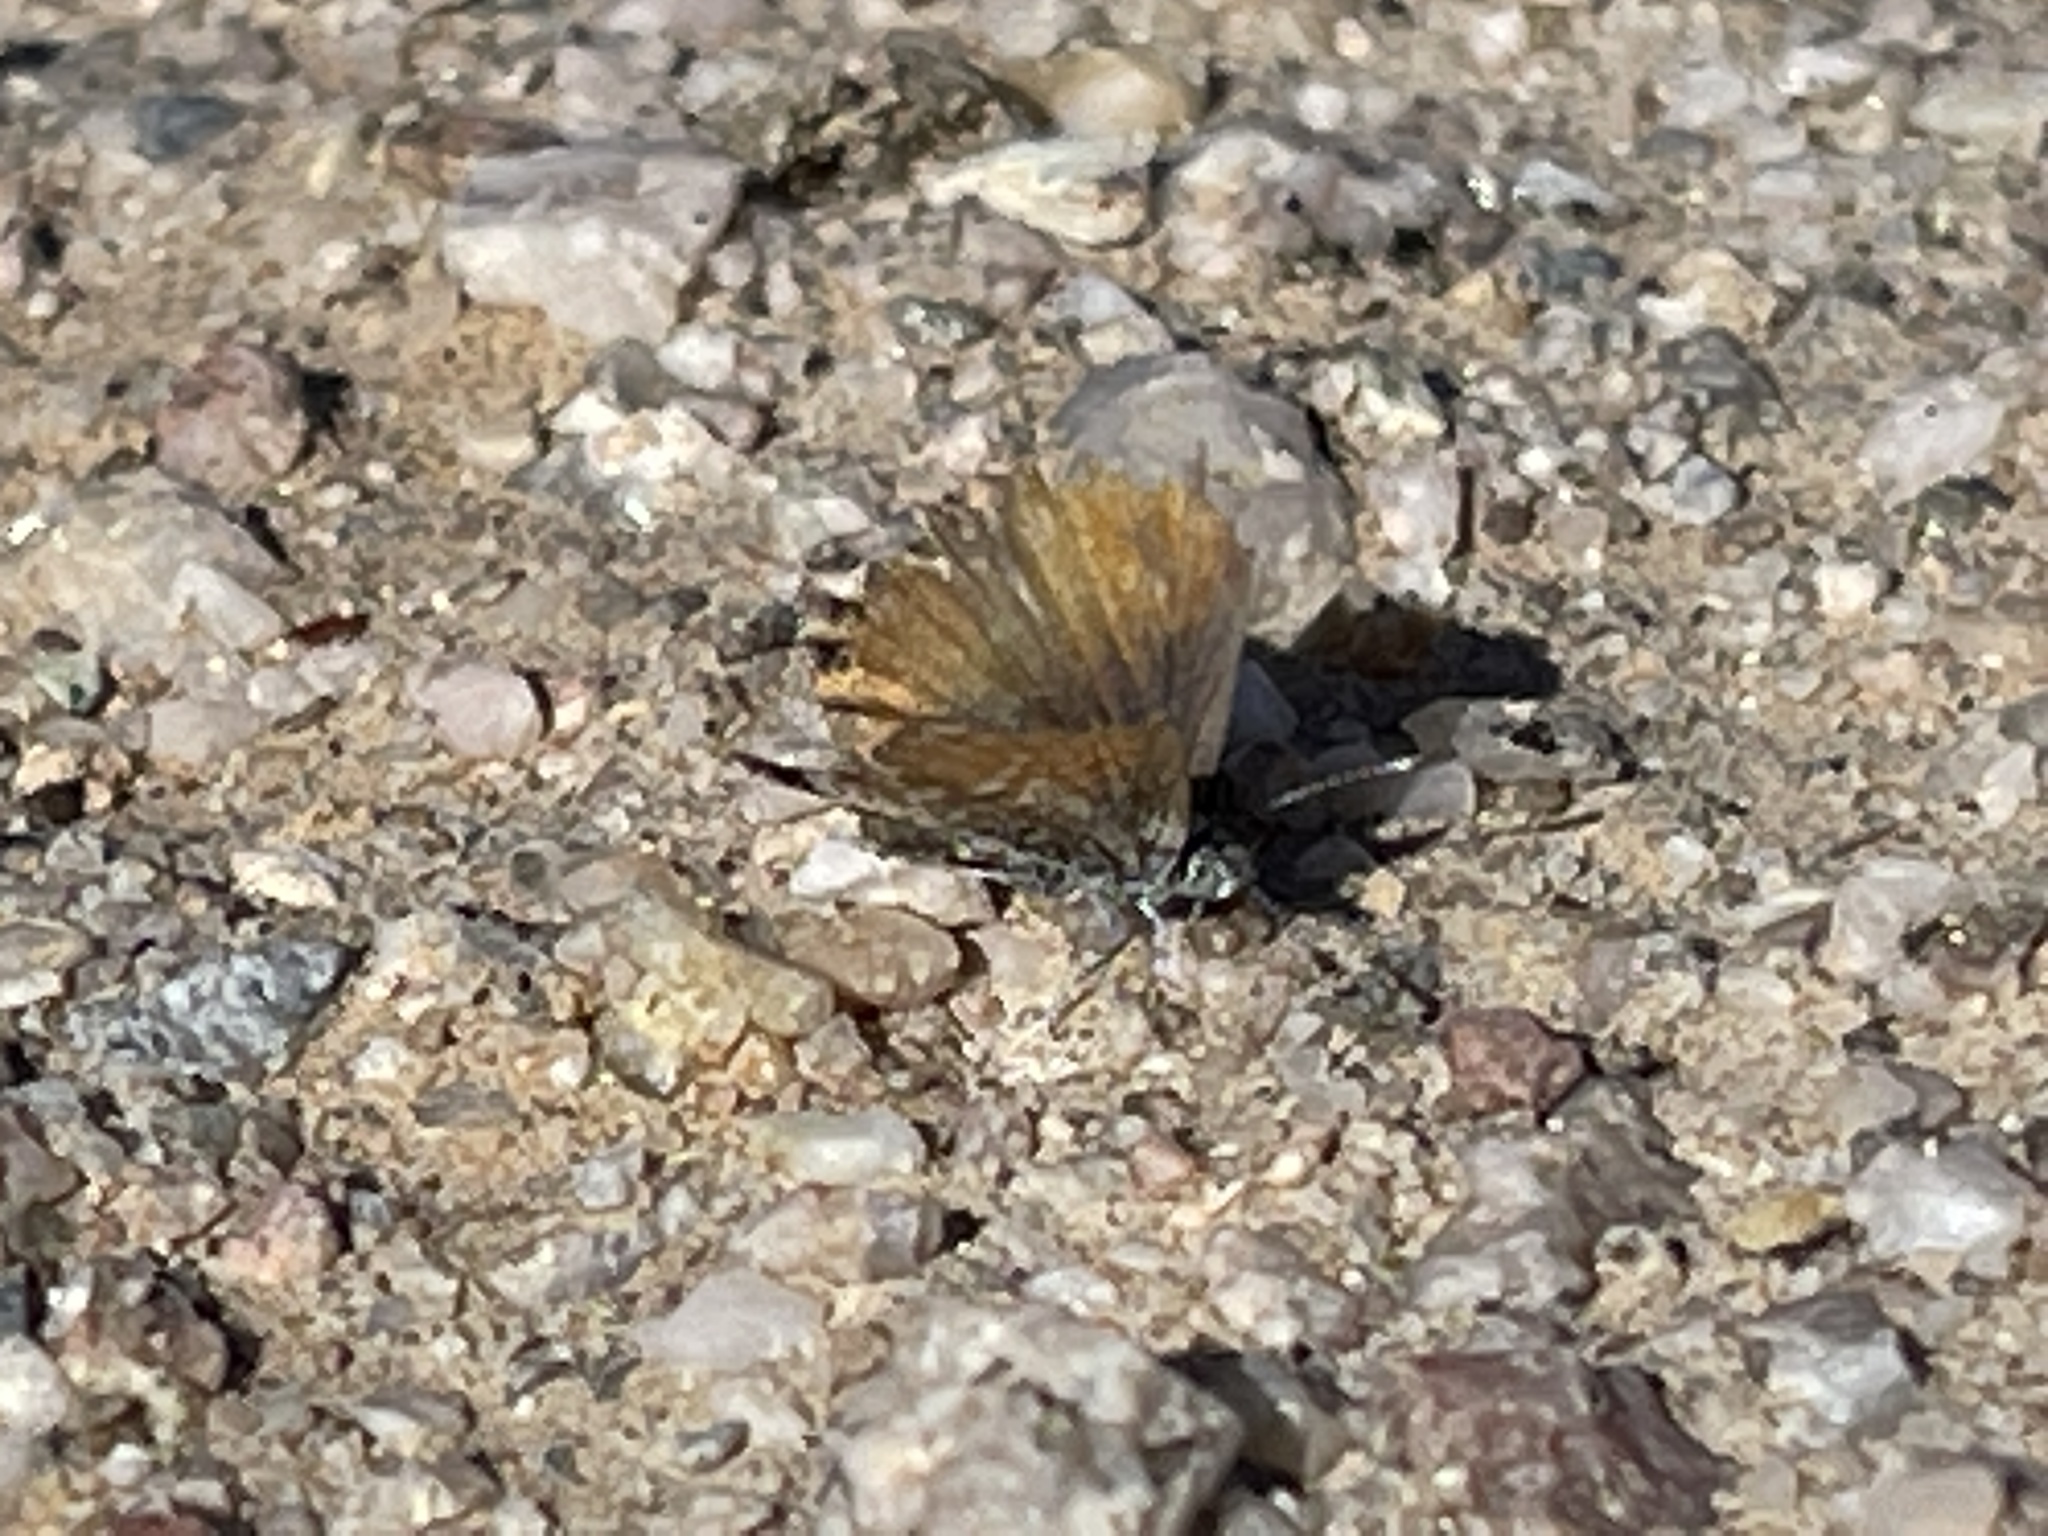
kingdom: Animalia
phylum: Arthropoda
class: Insecta
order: Lepidoptera
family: Lycaenidae
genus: Brephidium
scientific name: Brephidium exilis
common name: Pygmy blue
